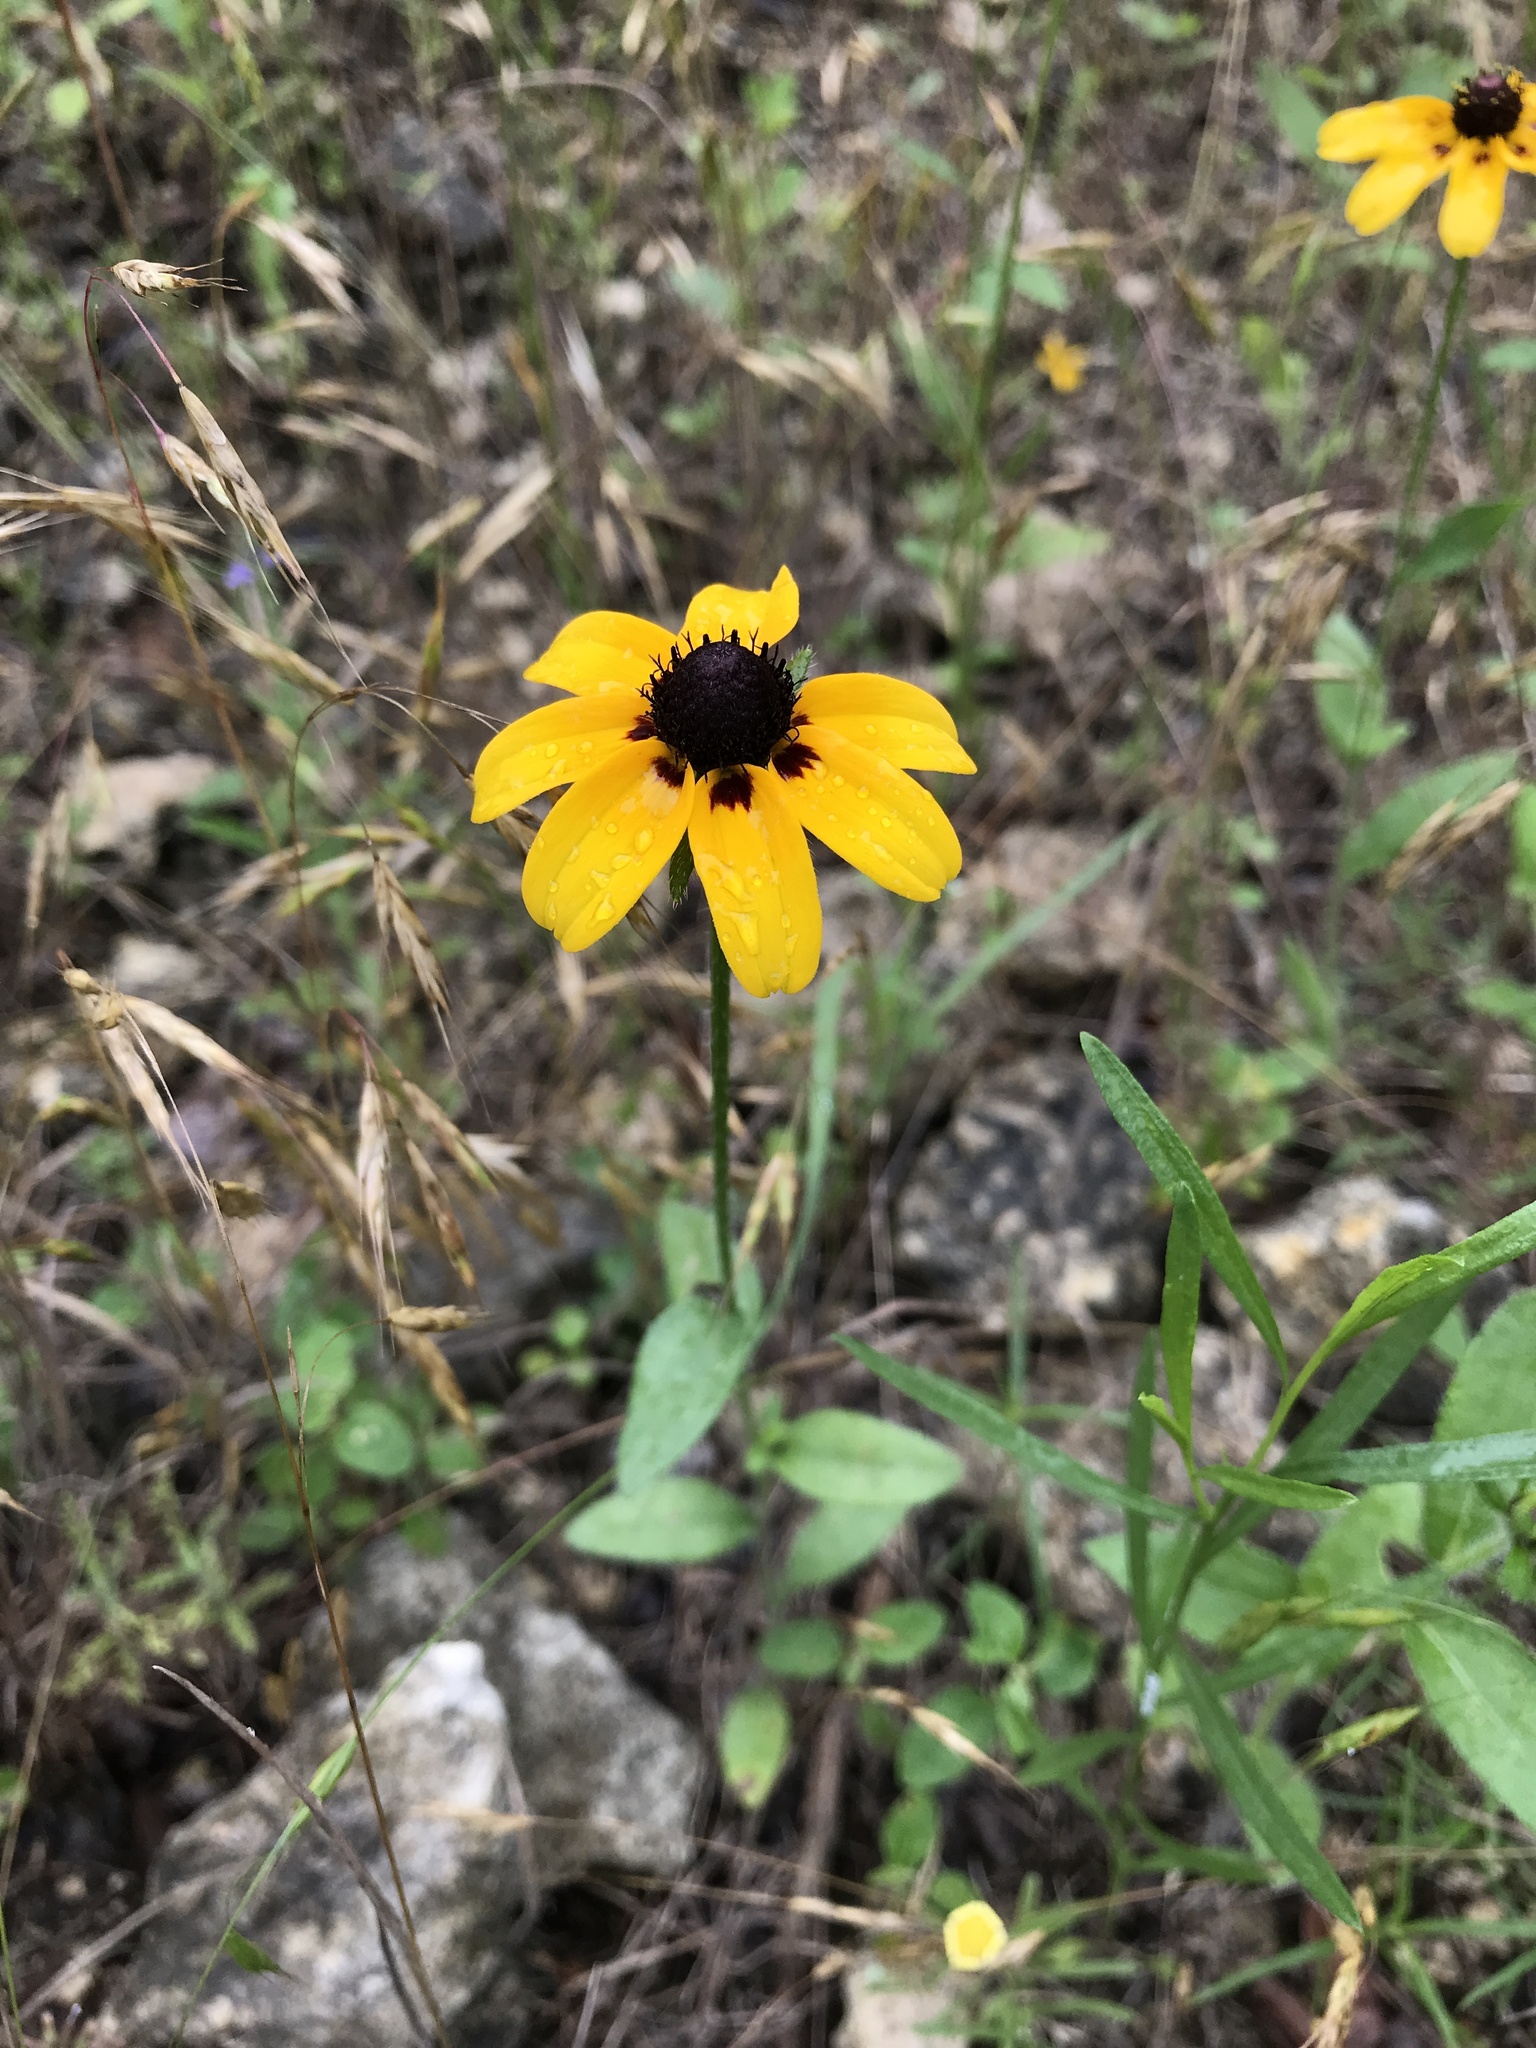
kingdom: Plantae
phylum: Tracheophyta
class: Magnoliopsida
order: Asterales
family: Asteraceae
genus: Rudbeckia
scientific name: Rudbeckia hirta
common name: Black-eyed-susan
